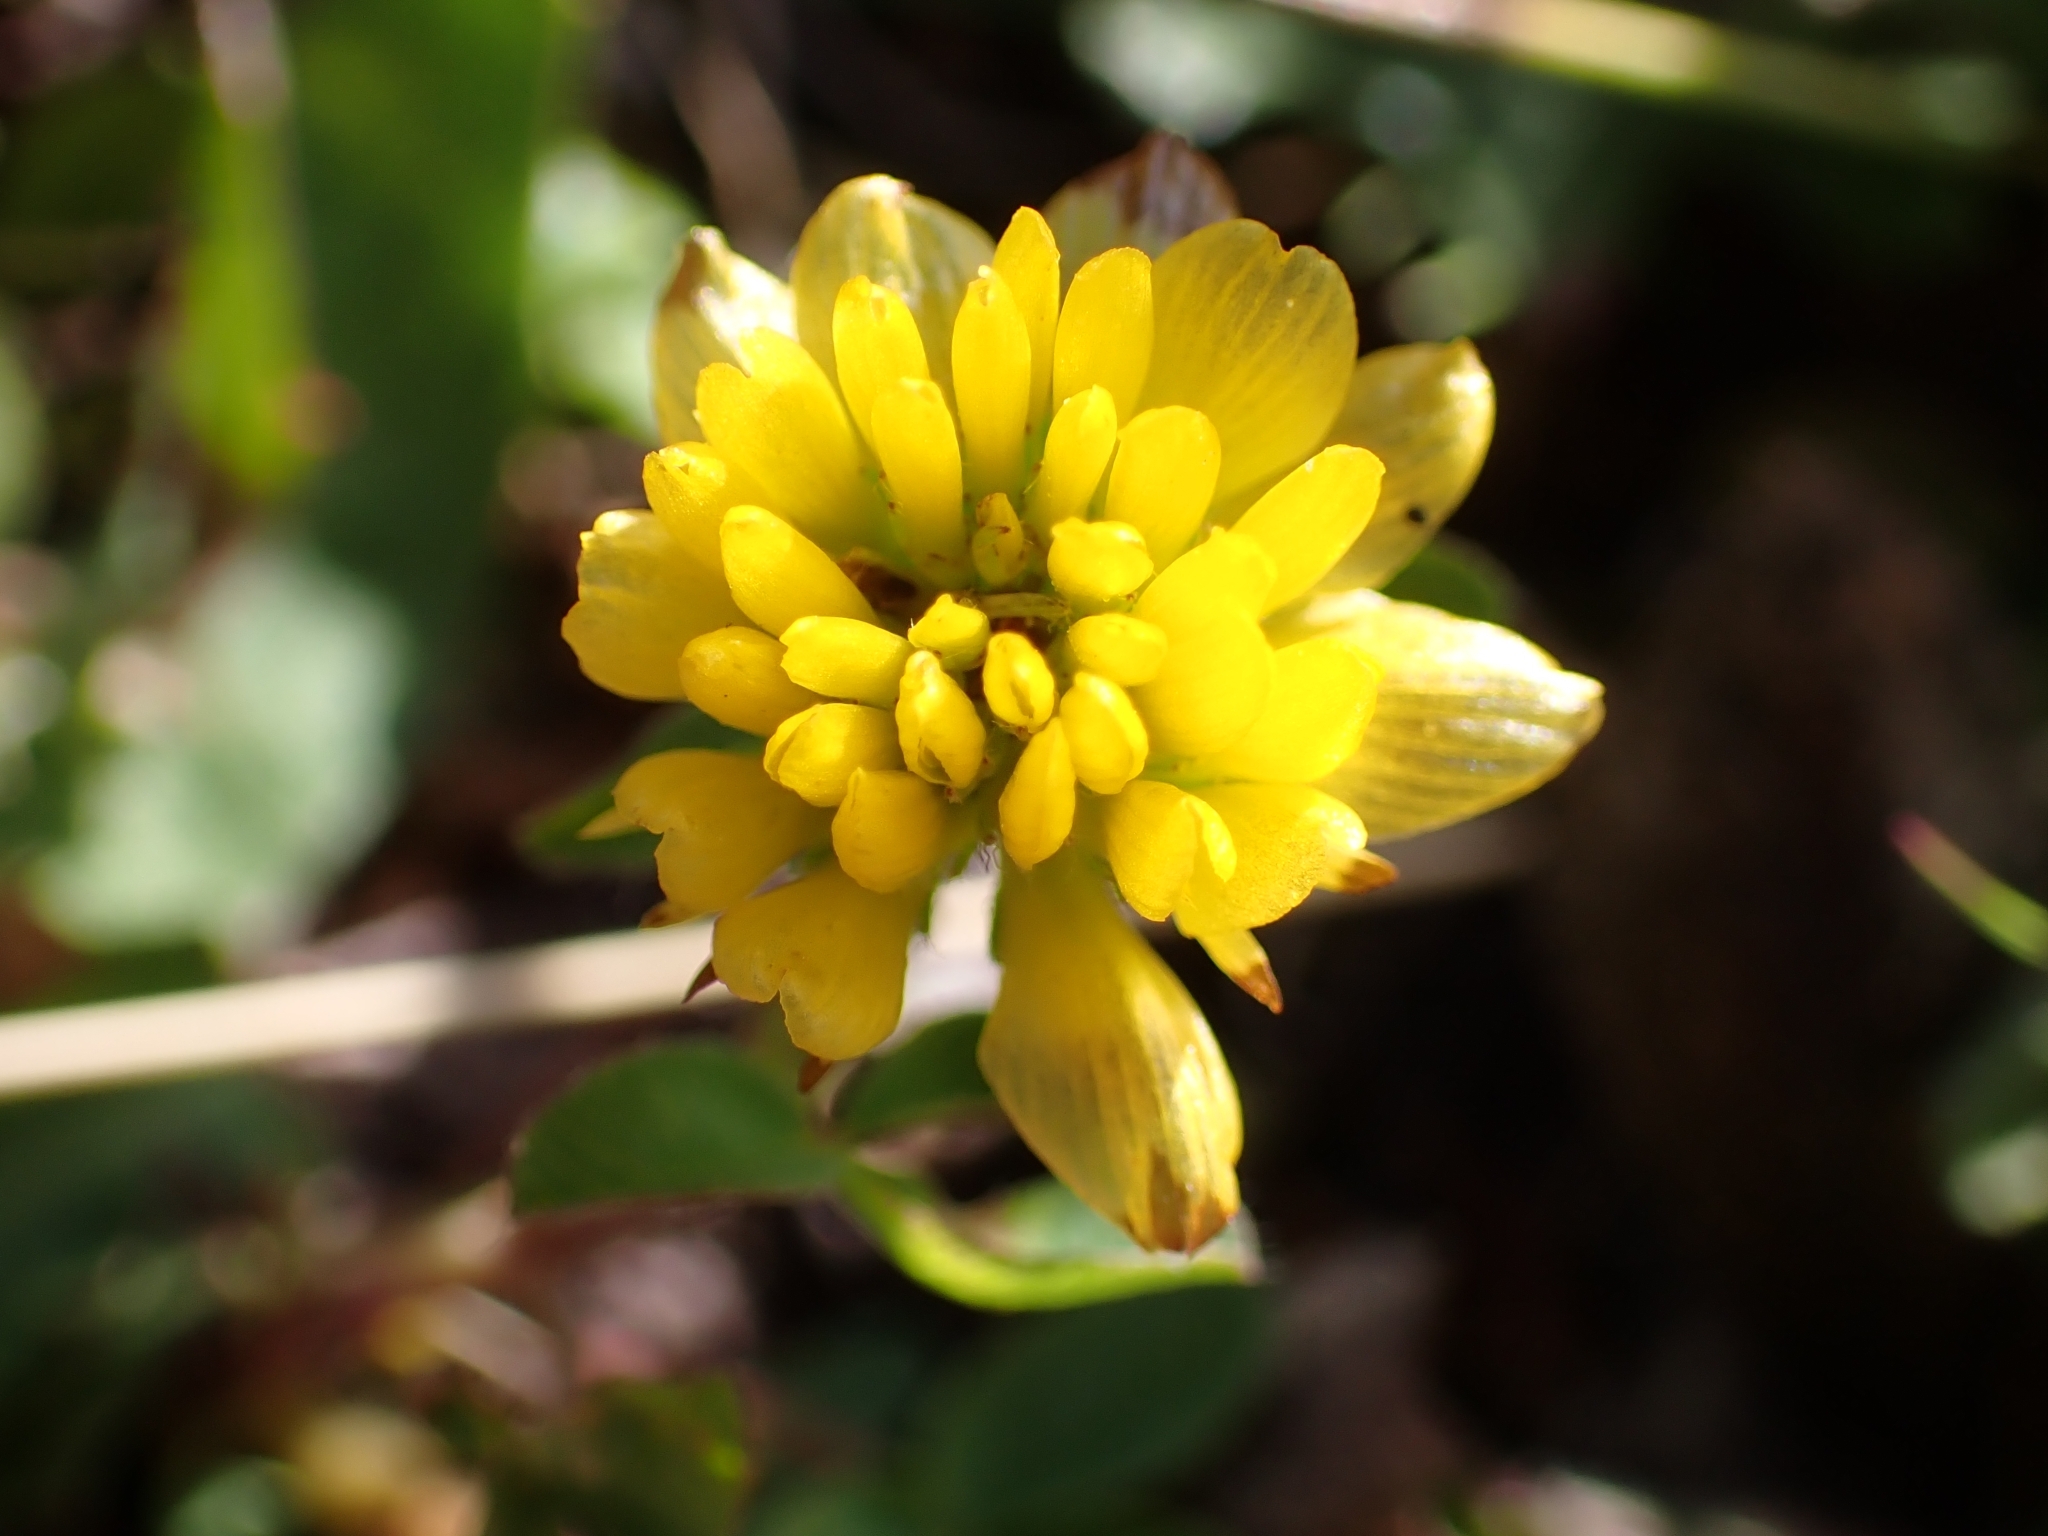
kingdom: Plantae
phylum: Tracheophyta
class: Magnoliopsida
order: Fabales
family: Fabaceae
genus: Trifolium
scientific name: Trifolium badium
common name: Brown clover
